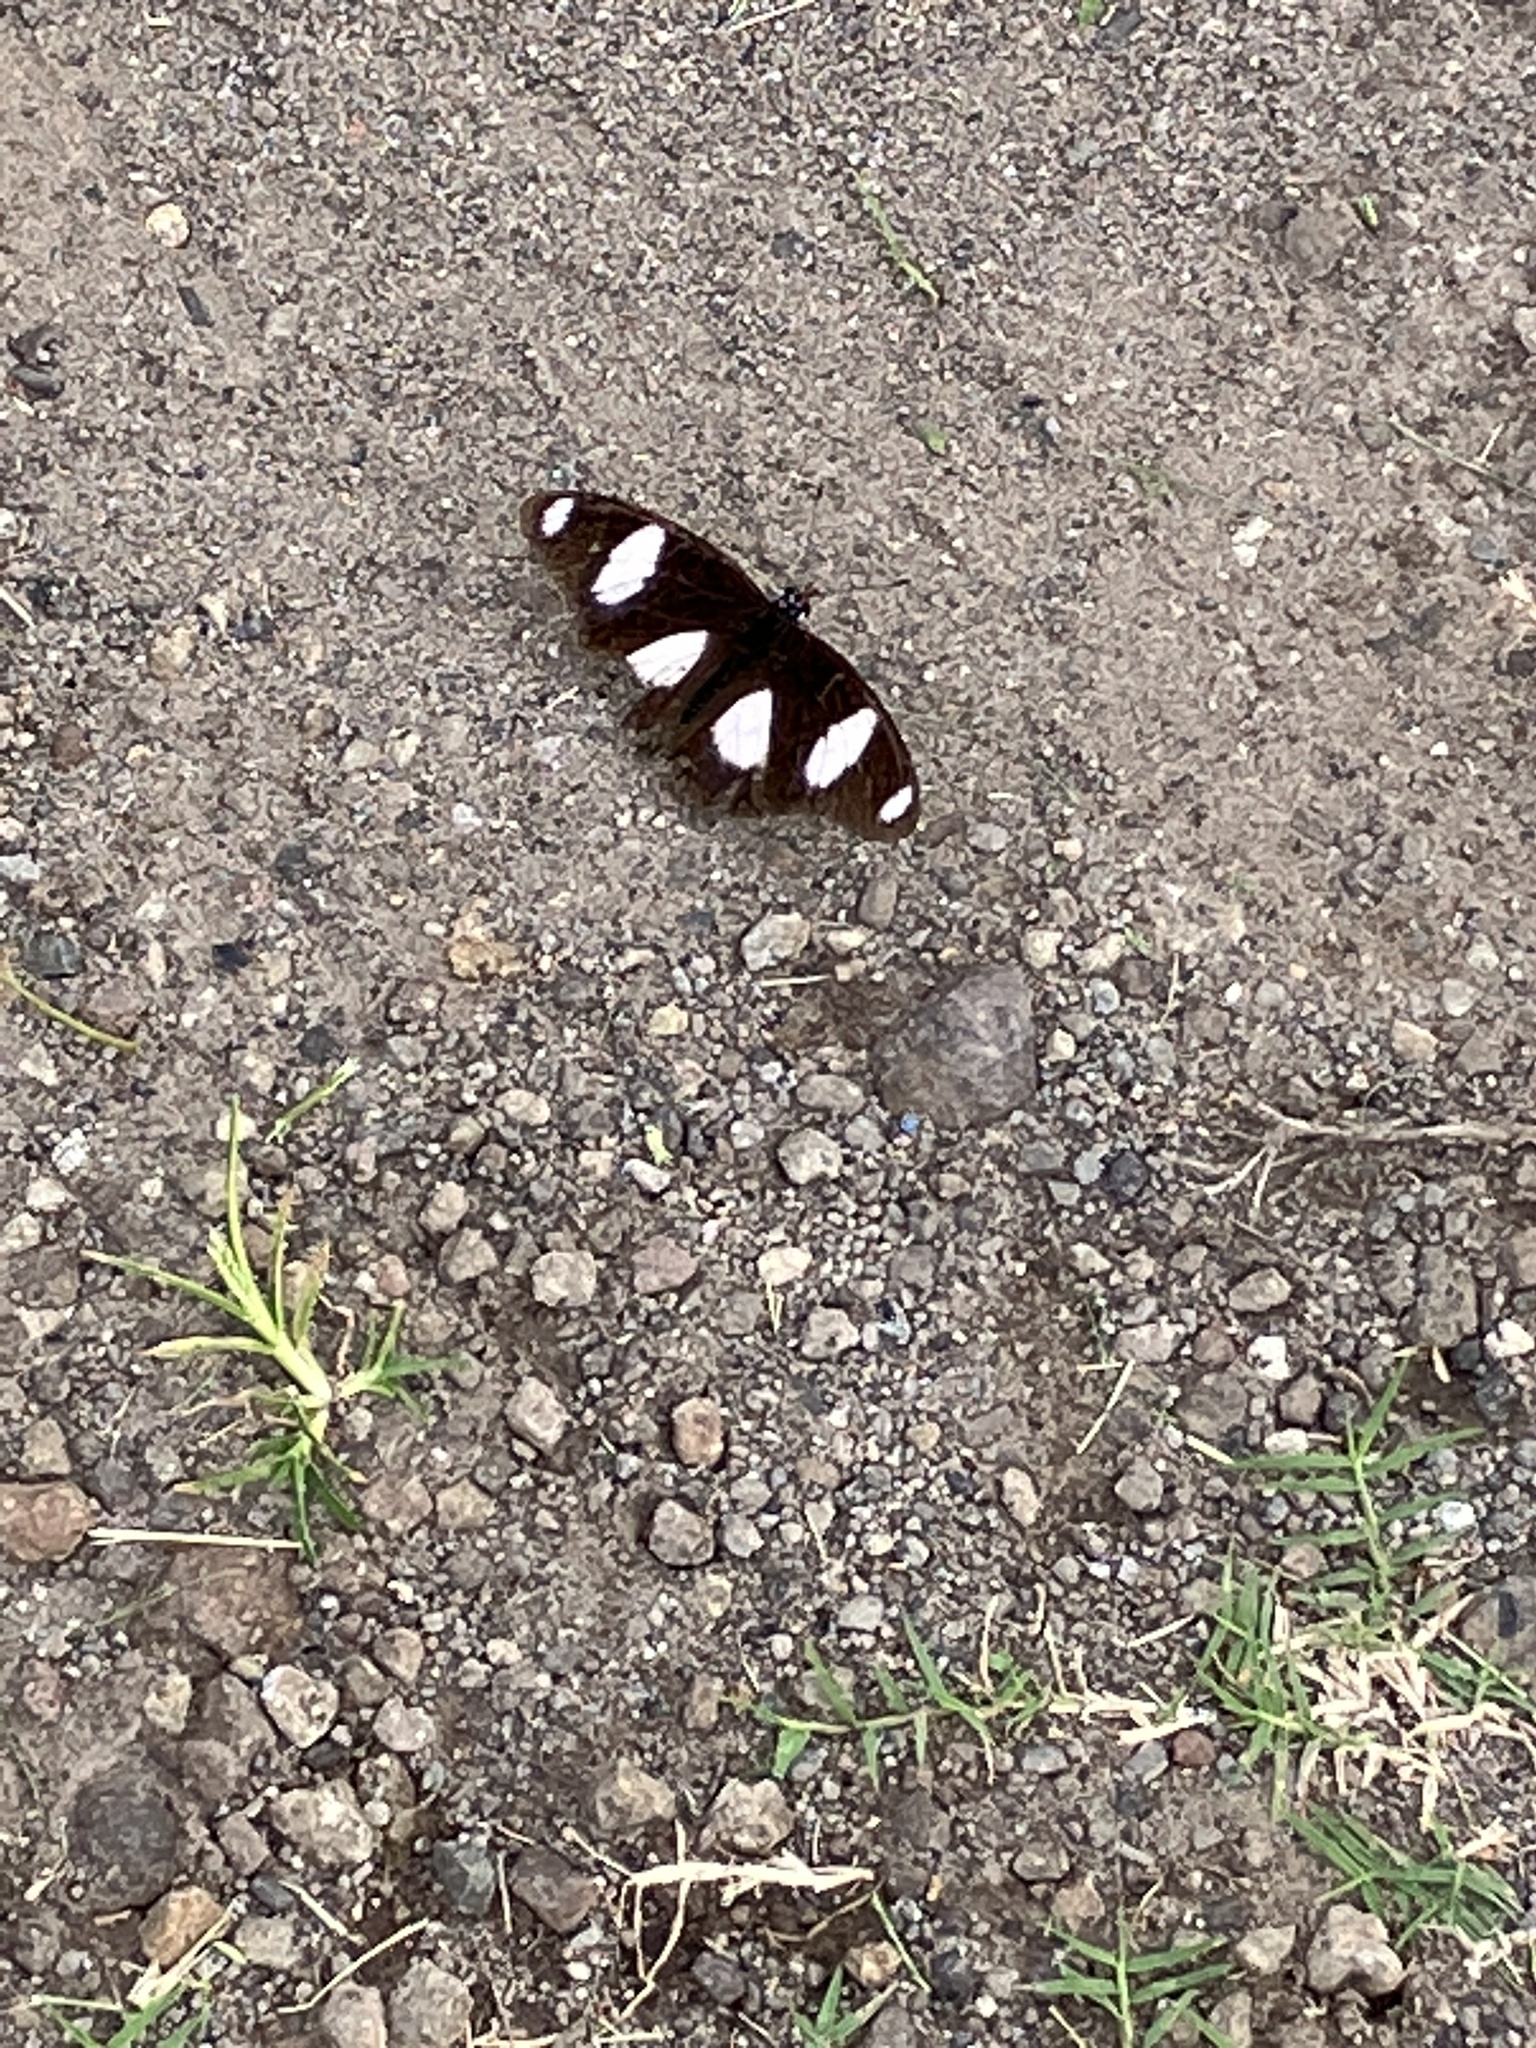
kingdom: Animalia
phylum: Arthropoda
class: Insecta
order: Lepidoptera
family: Nymphalidae
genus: Hypolimnas
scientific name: Hypolimnas misippus
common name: False plain tiger
